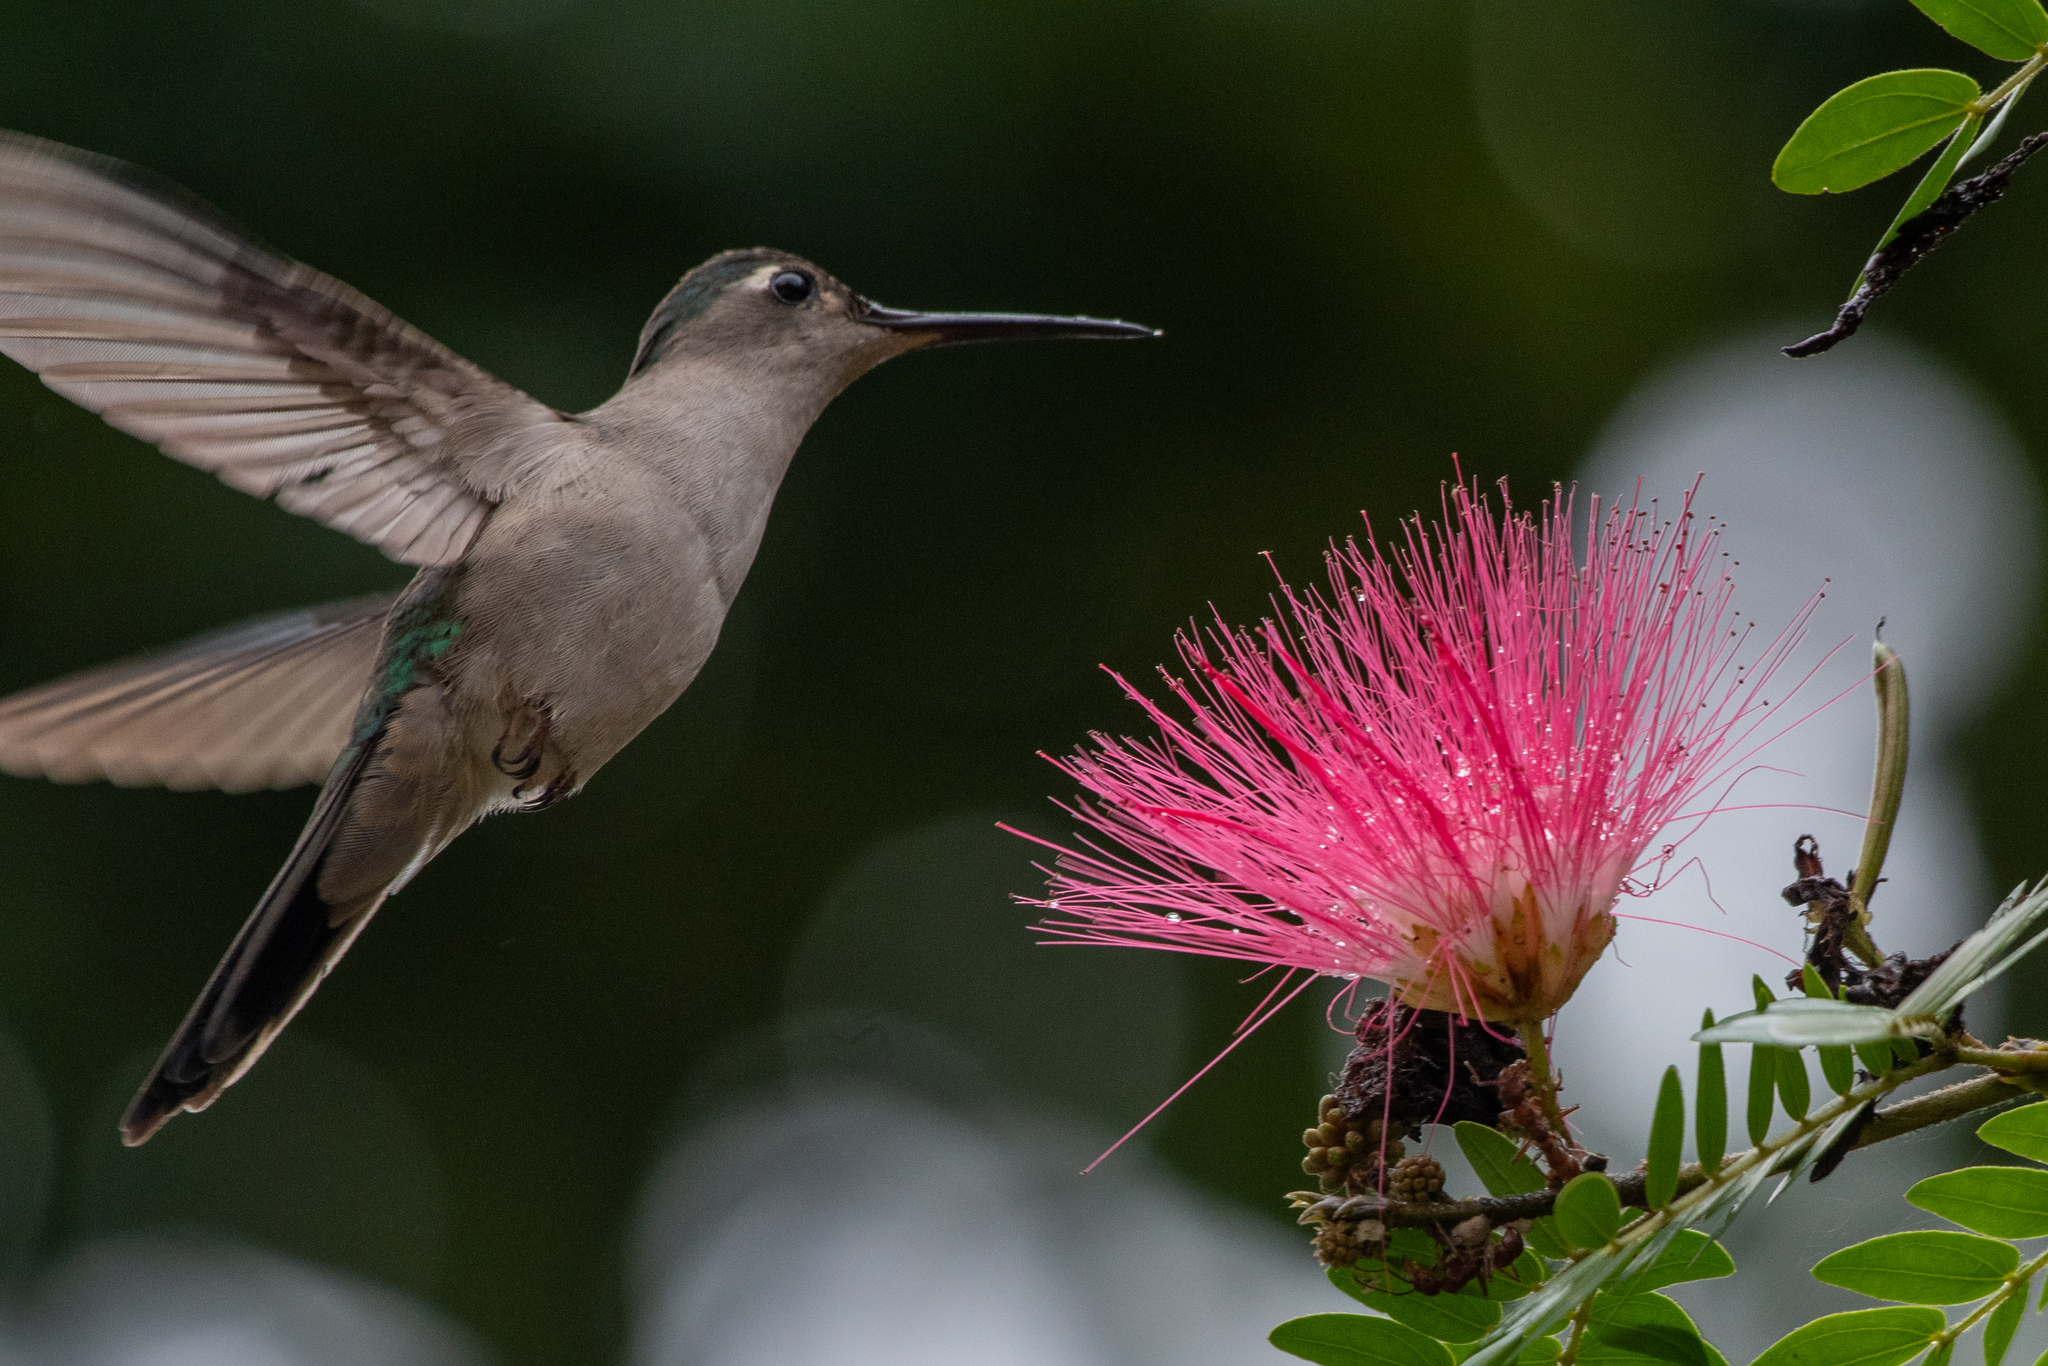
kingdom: Animalia
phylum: Chordata
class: Aves
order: Apodiformes
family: Trochilidae
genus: Pampa
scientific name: Pampa curvipennis
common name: Curve-winged sabrewing
